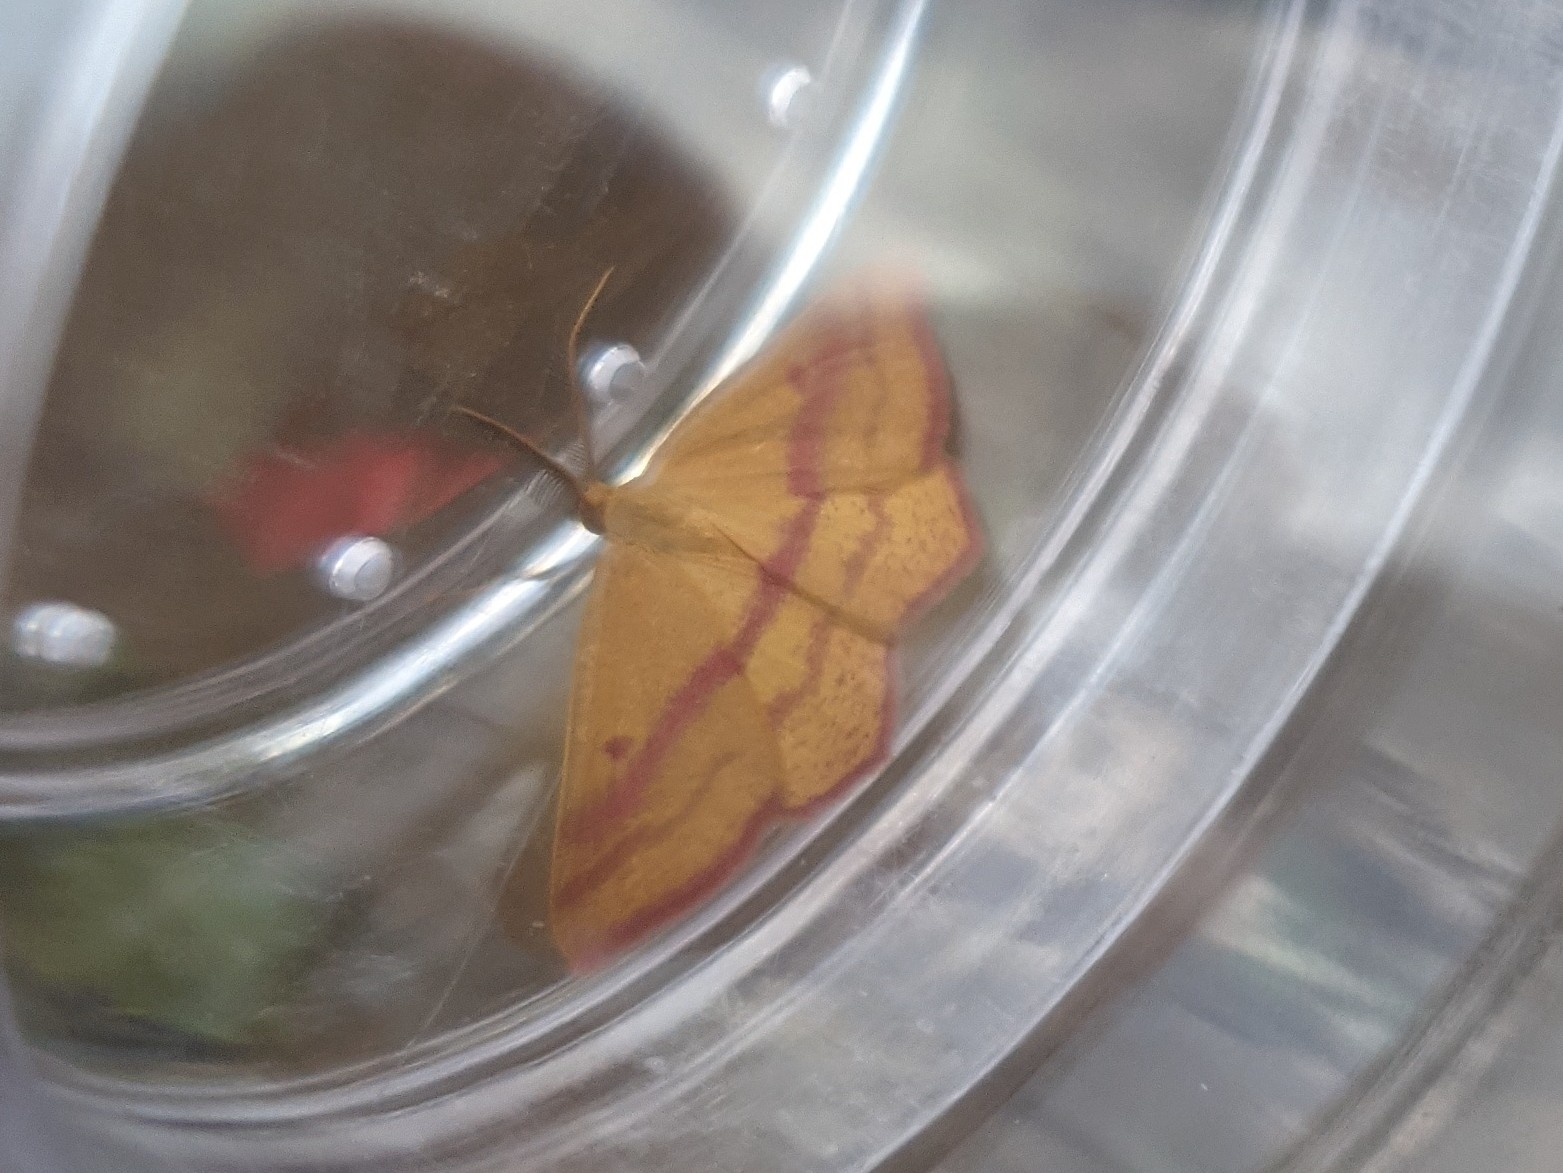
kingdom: Animalia
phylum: Arthropoda
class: Insecta
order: Lepidoptera
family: Geometridae
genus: Haematopis
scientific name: Haematopis grataria
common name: Chickweed geometer
